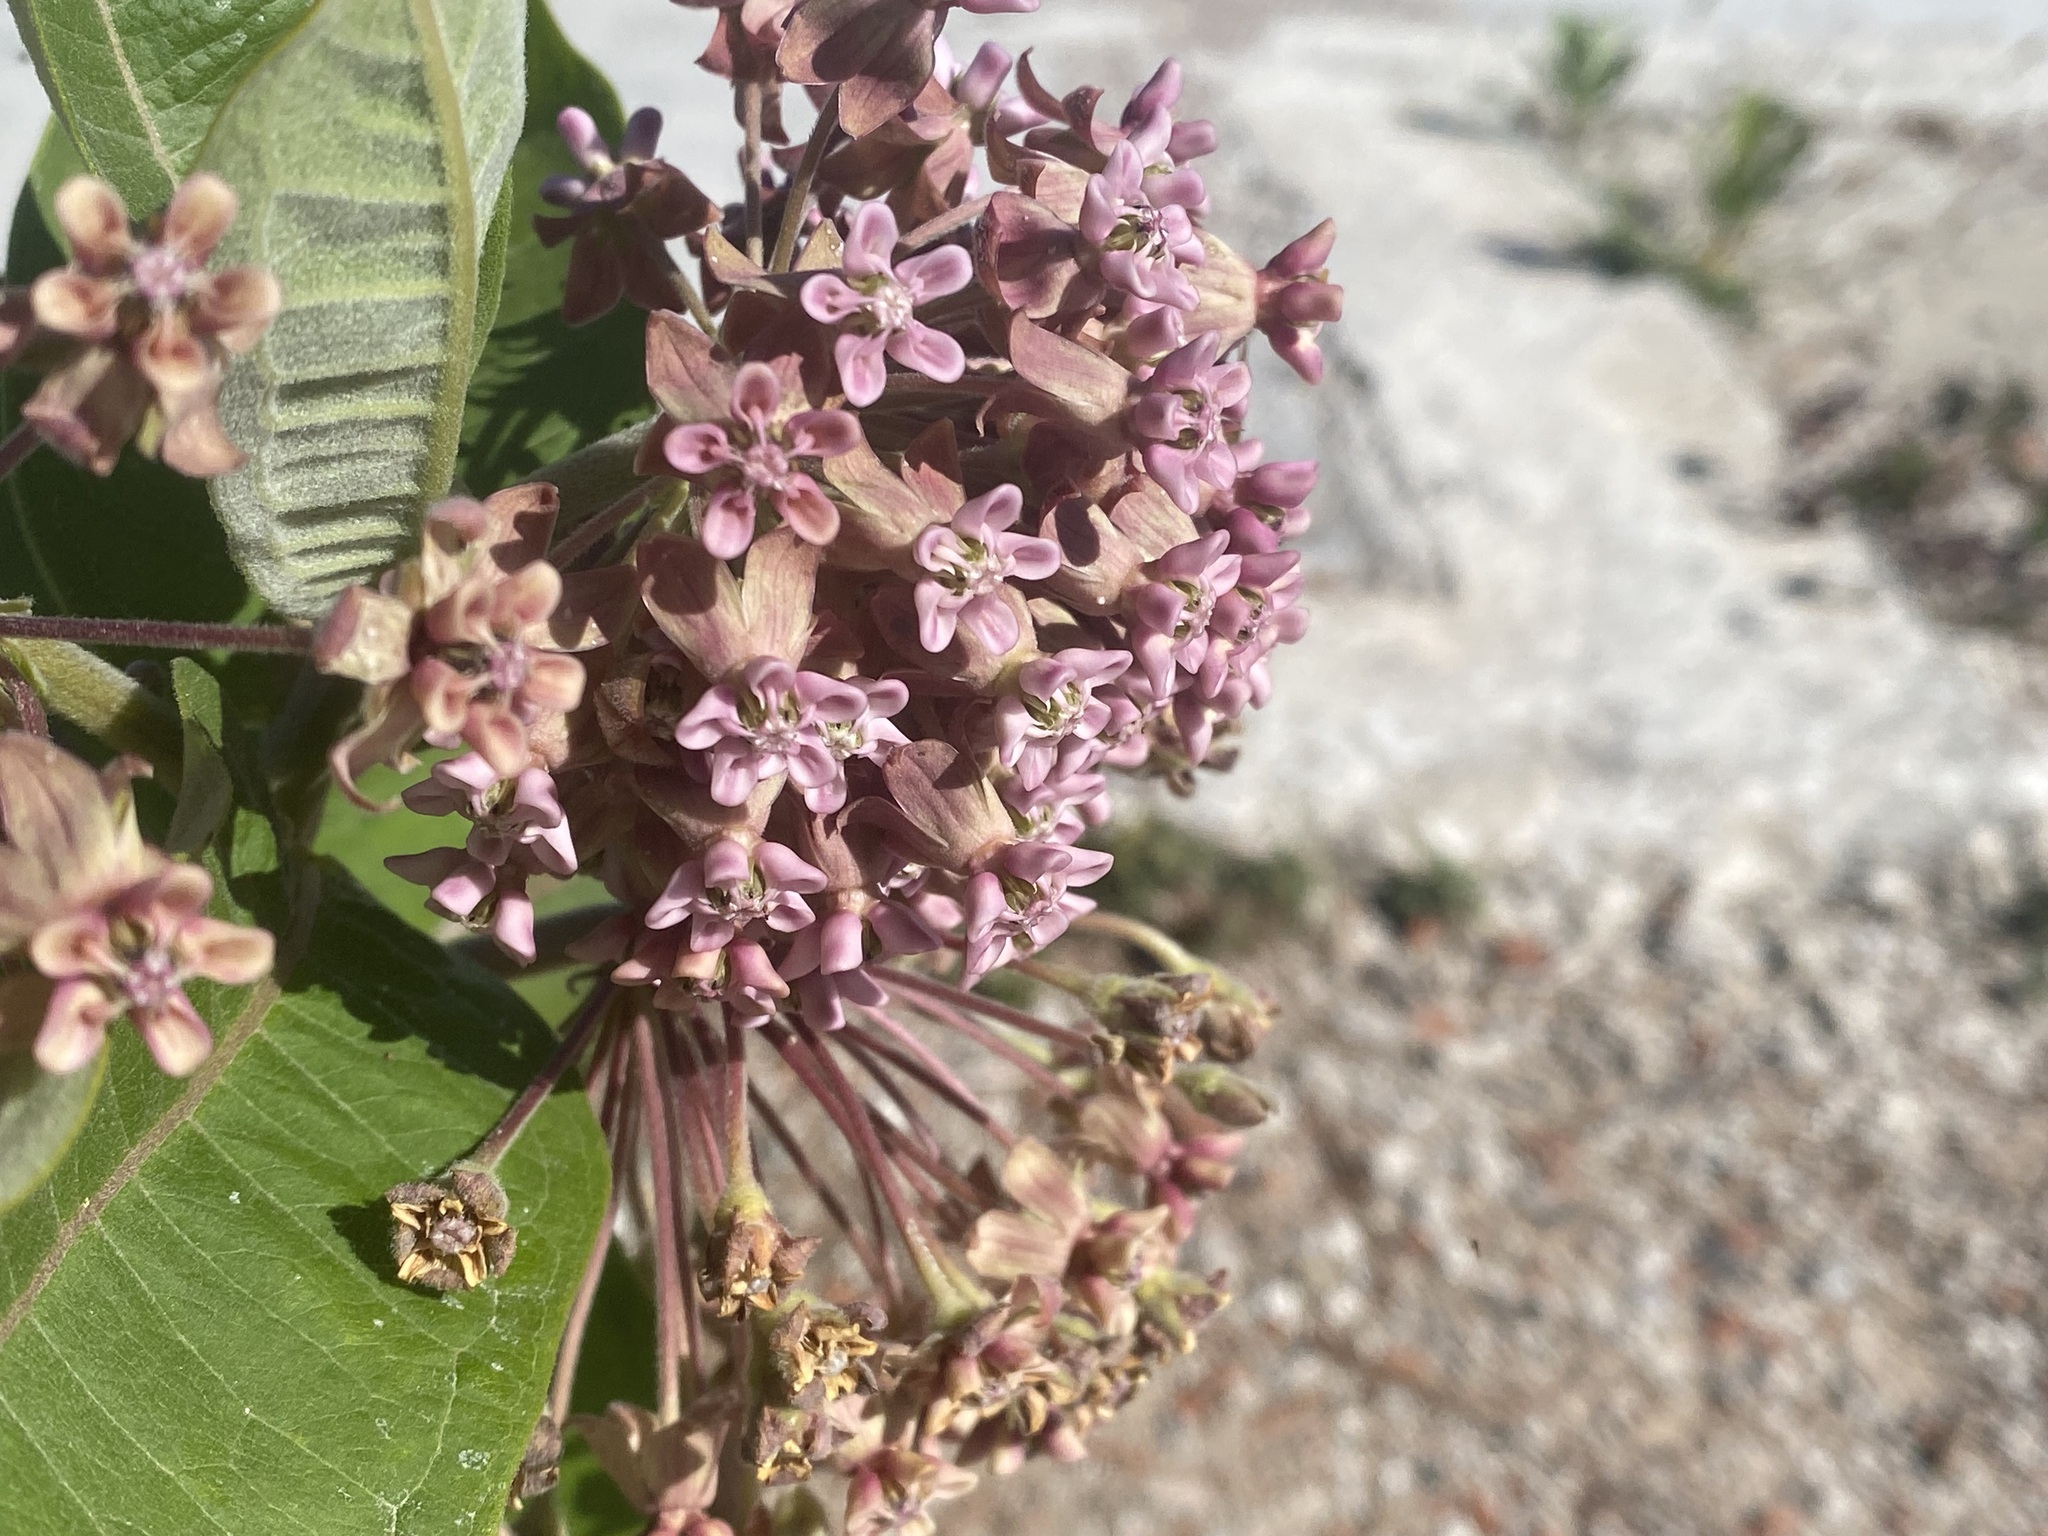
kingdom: Plantae
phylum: Tracheophyta
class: Magnoliopsida
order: Gentianales
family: Apocynaceae
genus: Asclepias
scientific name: Asclepias syriaca
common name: Common milkweed
